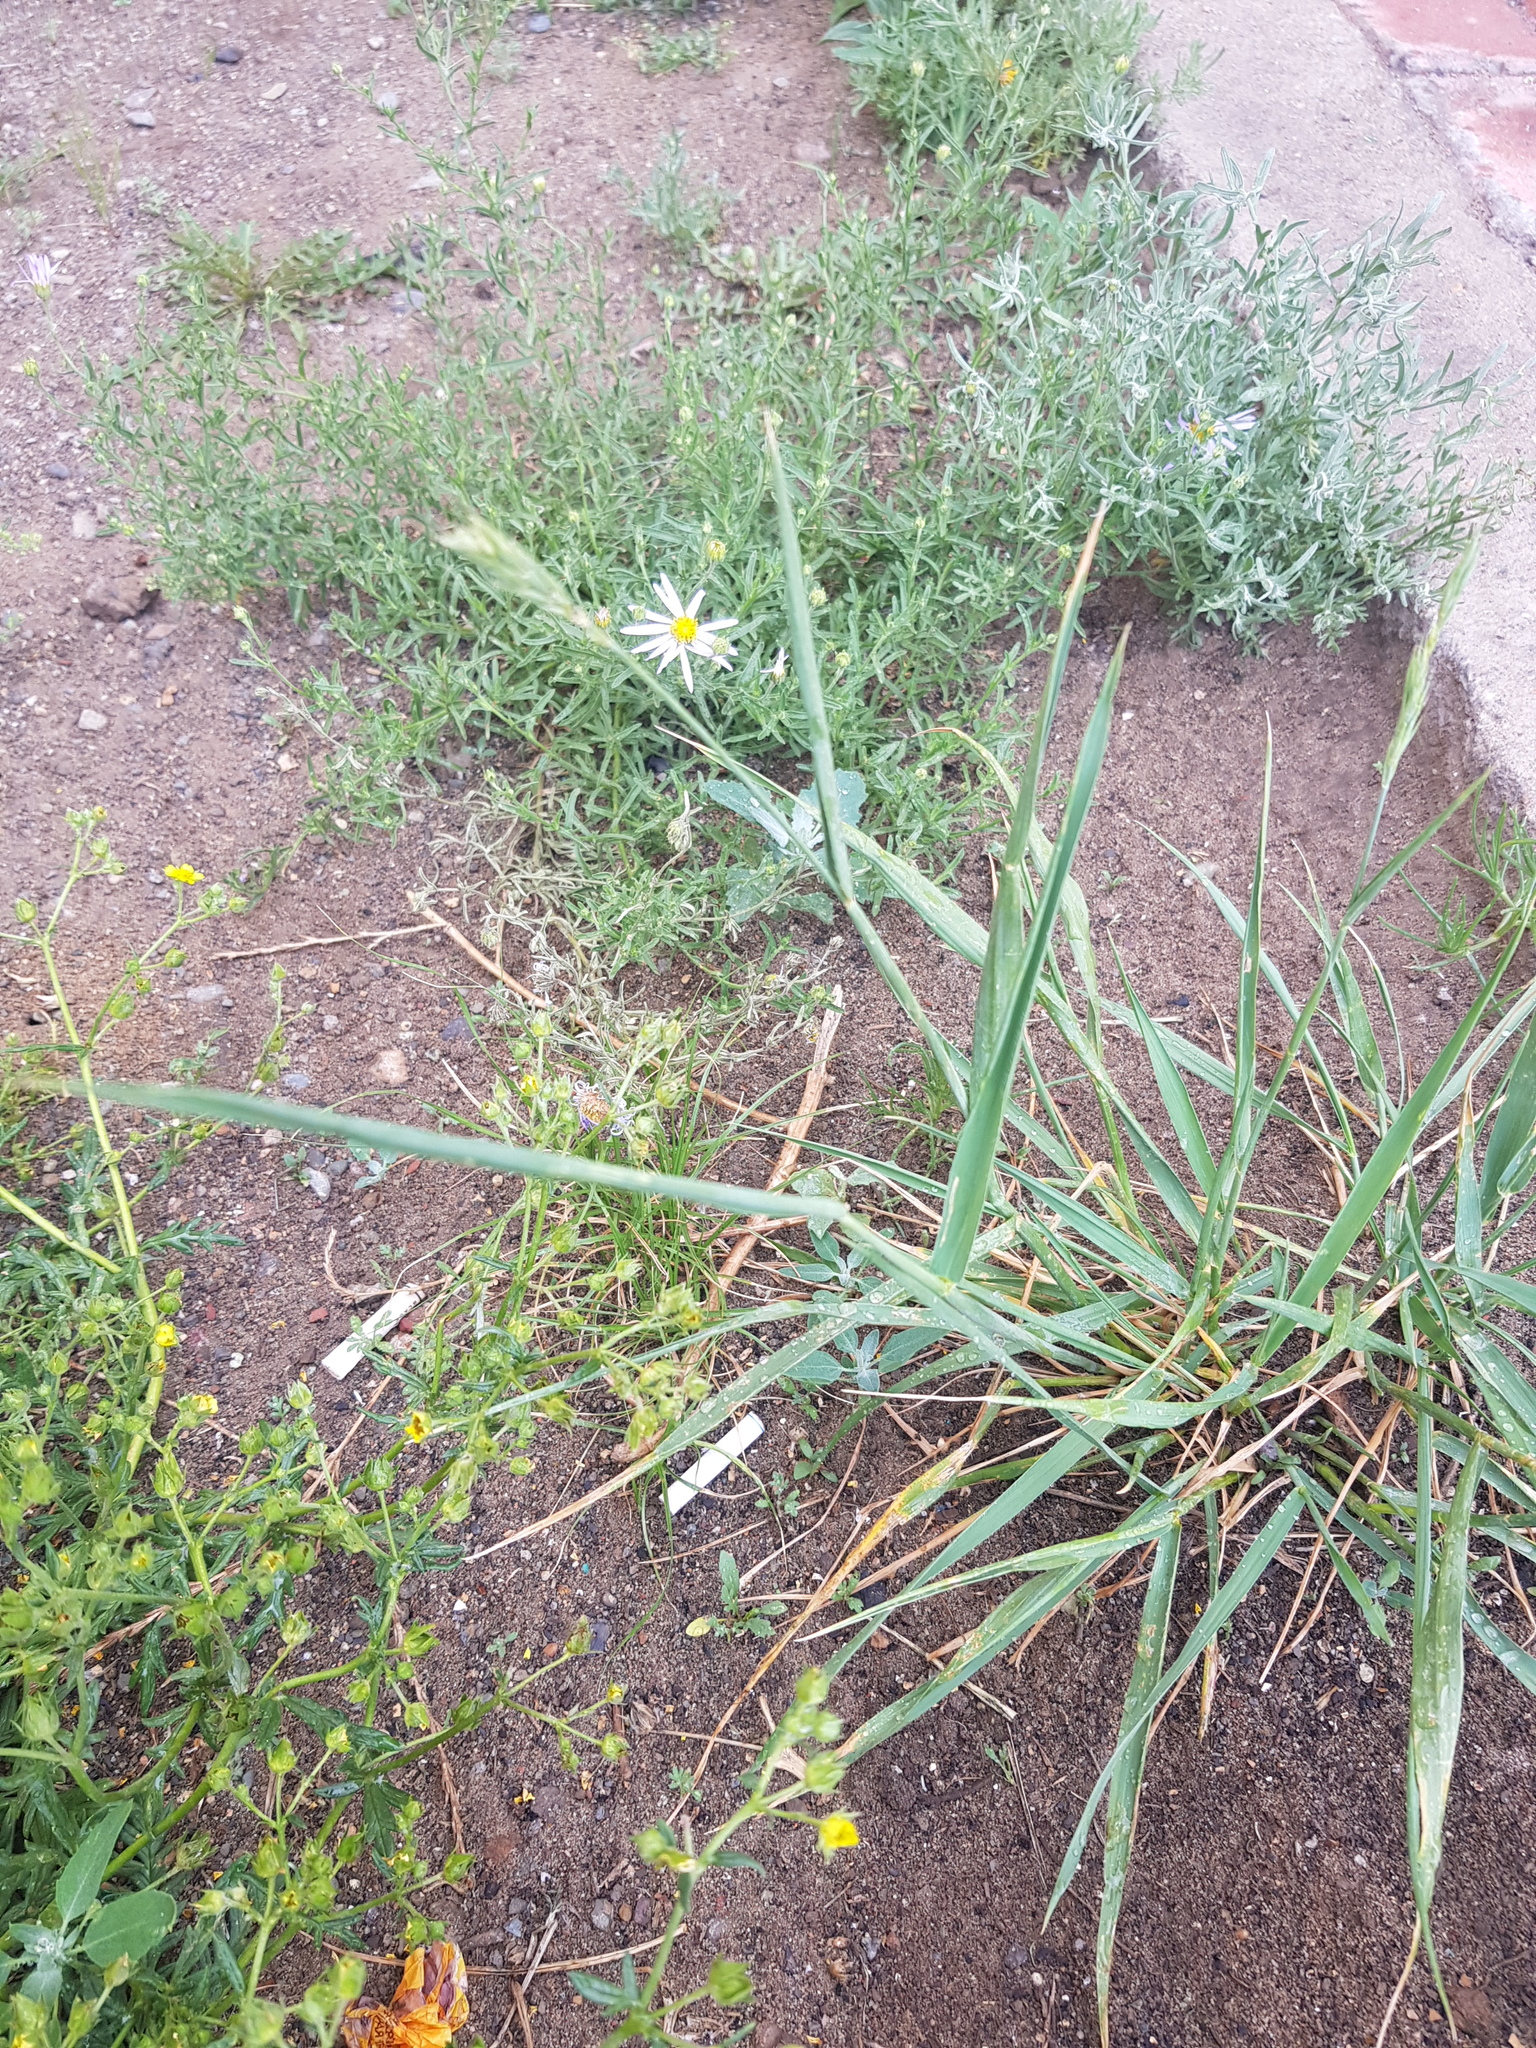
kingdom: Plantae
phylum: Tracheophyta
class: Liliopsida
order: Poales
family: Poaceae
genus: Elymus
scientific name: Elymus repens
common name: Quackgrass
